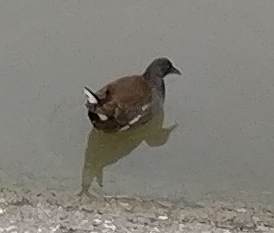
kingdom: Animalia
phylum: Chordata
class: Aves
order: Gruiformes
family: Rallidae
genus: Gallinula
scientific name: Gallinula chloropus
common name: Common moorhen
